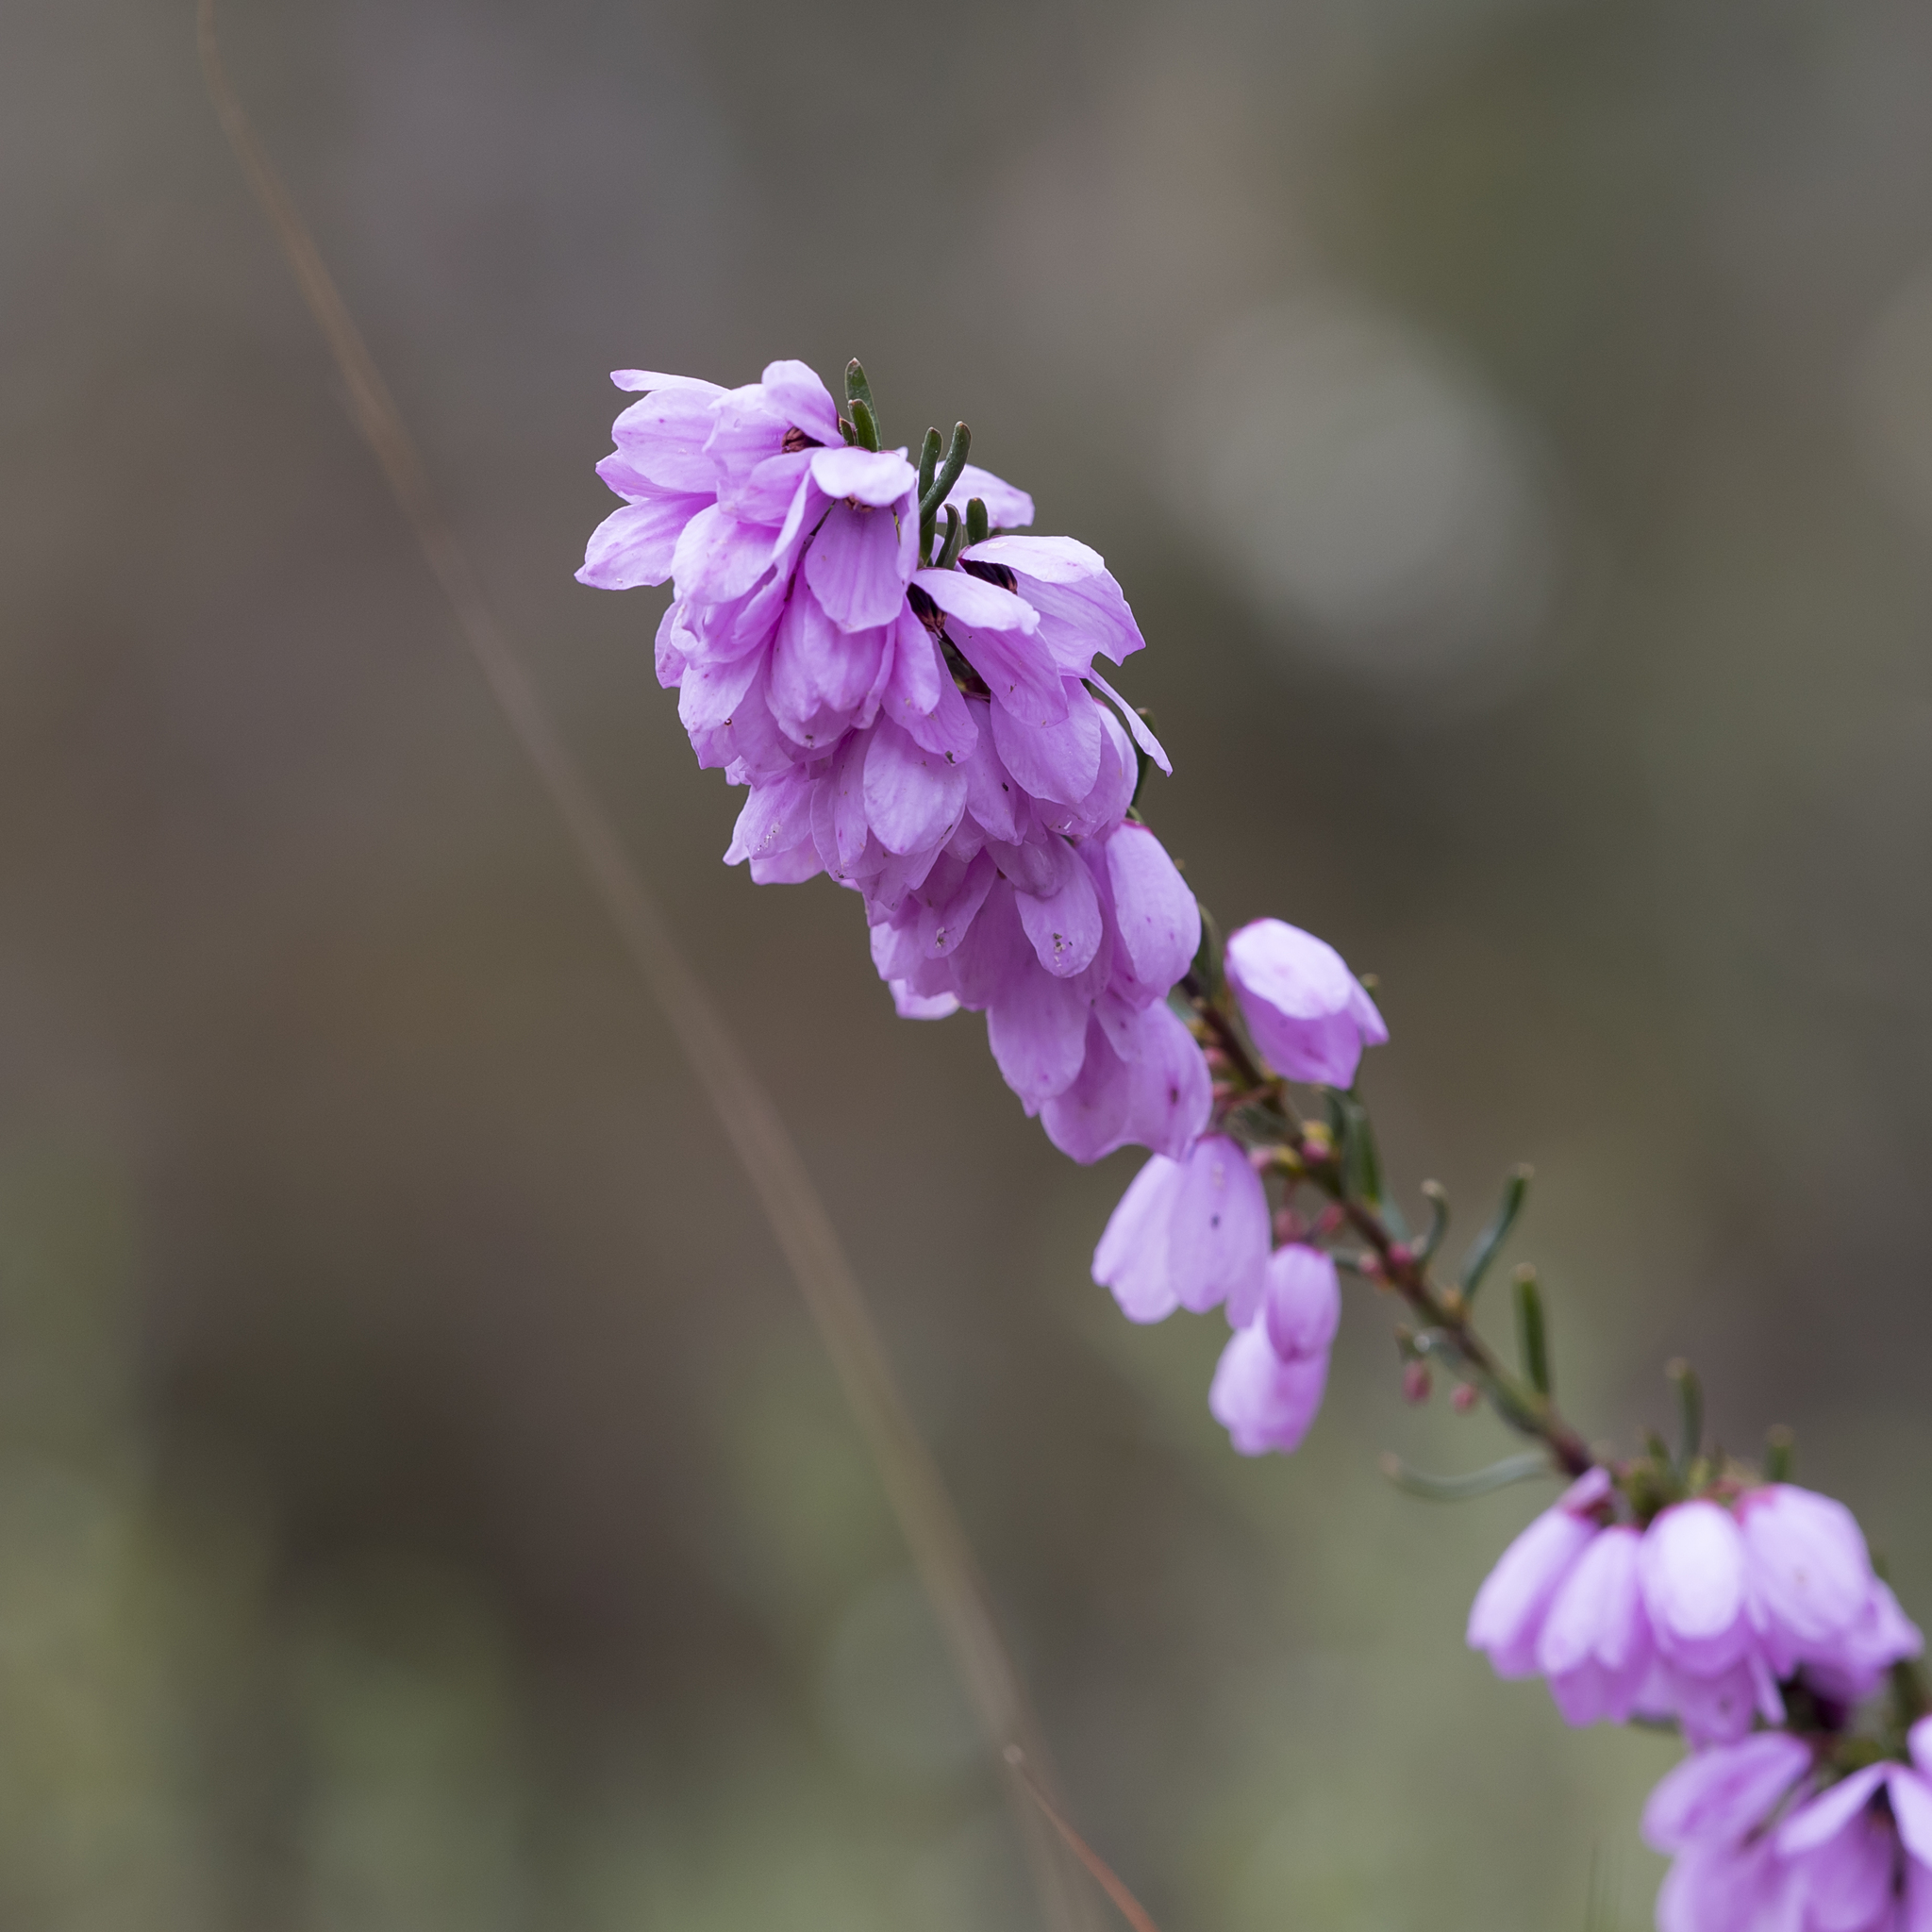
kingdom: Plantae
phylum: Tracheophyta
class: Magnoliopsida
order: Oxalidales
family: Elaeocarpaceae
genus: Tetratheca
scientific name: Tetratheca pilosa
